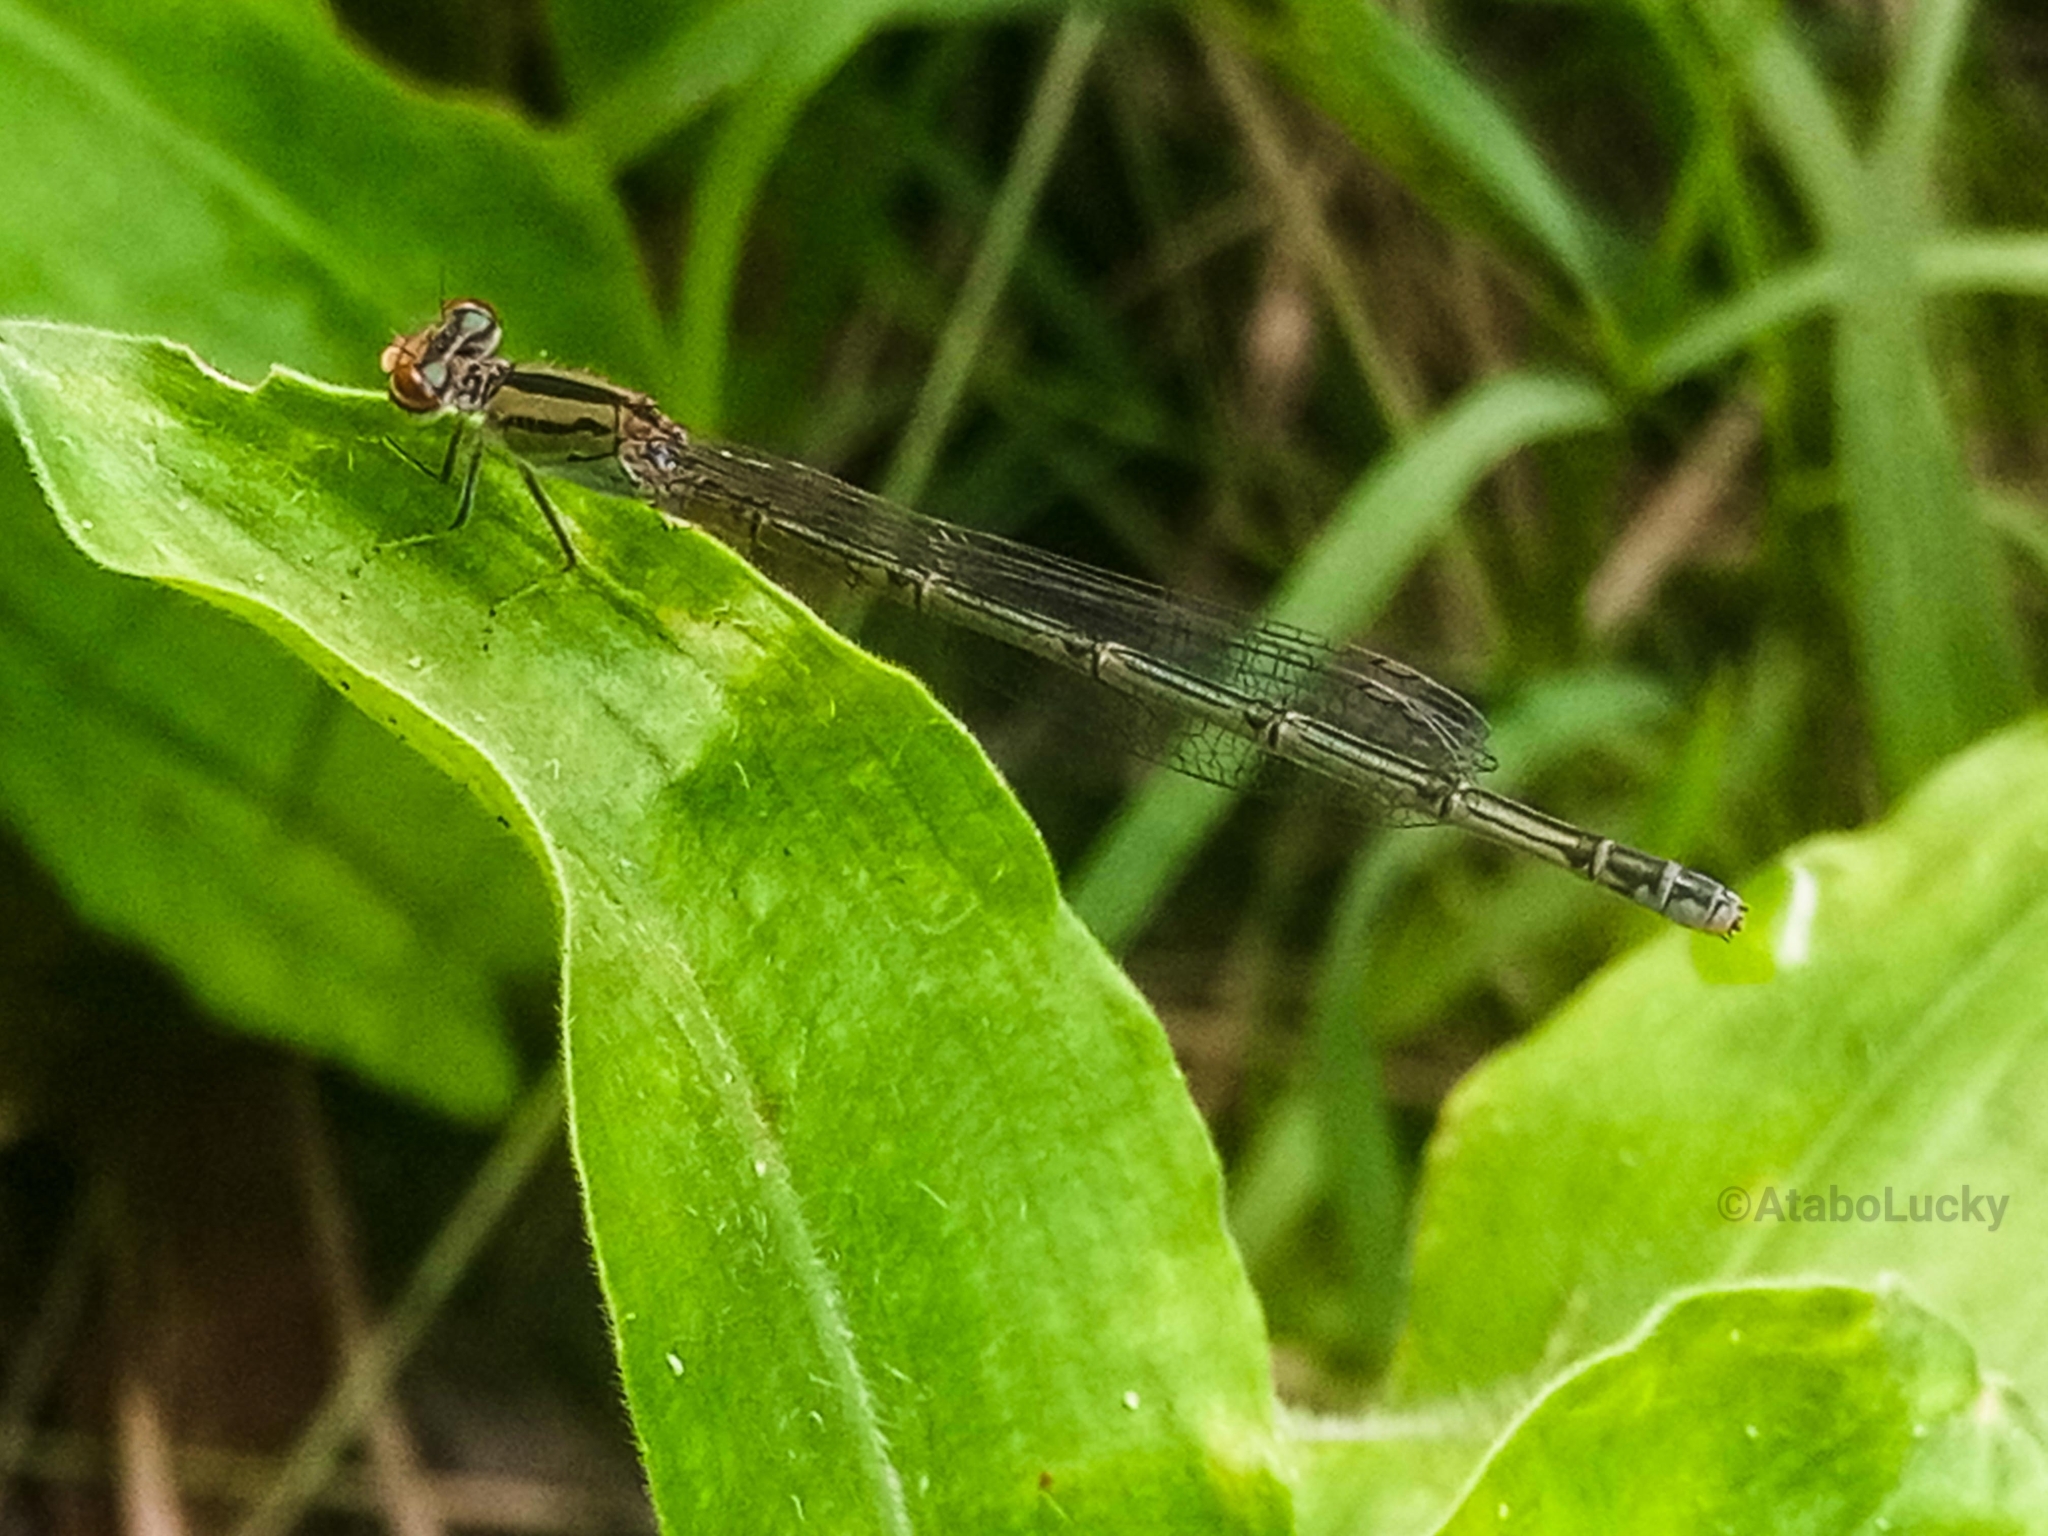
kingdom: Animalia
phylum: Arthropoda
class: Insecta
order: Odonata
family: Coenagrionidae
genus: Pseudagrion
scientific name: Pseudagrion coeleste
